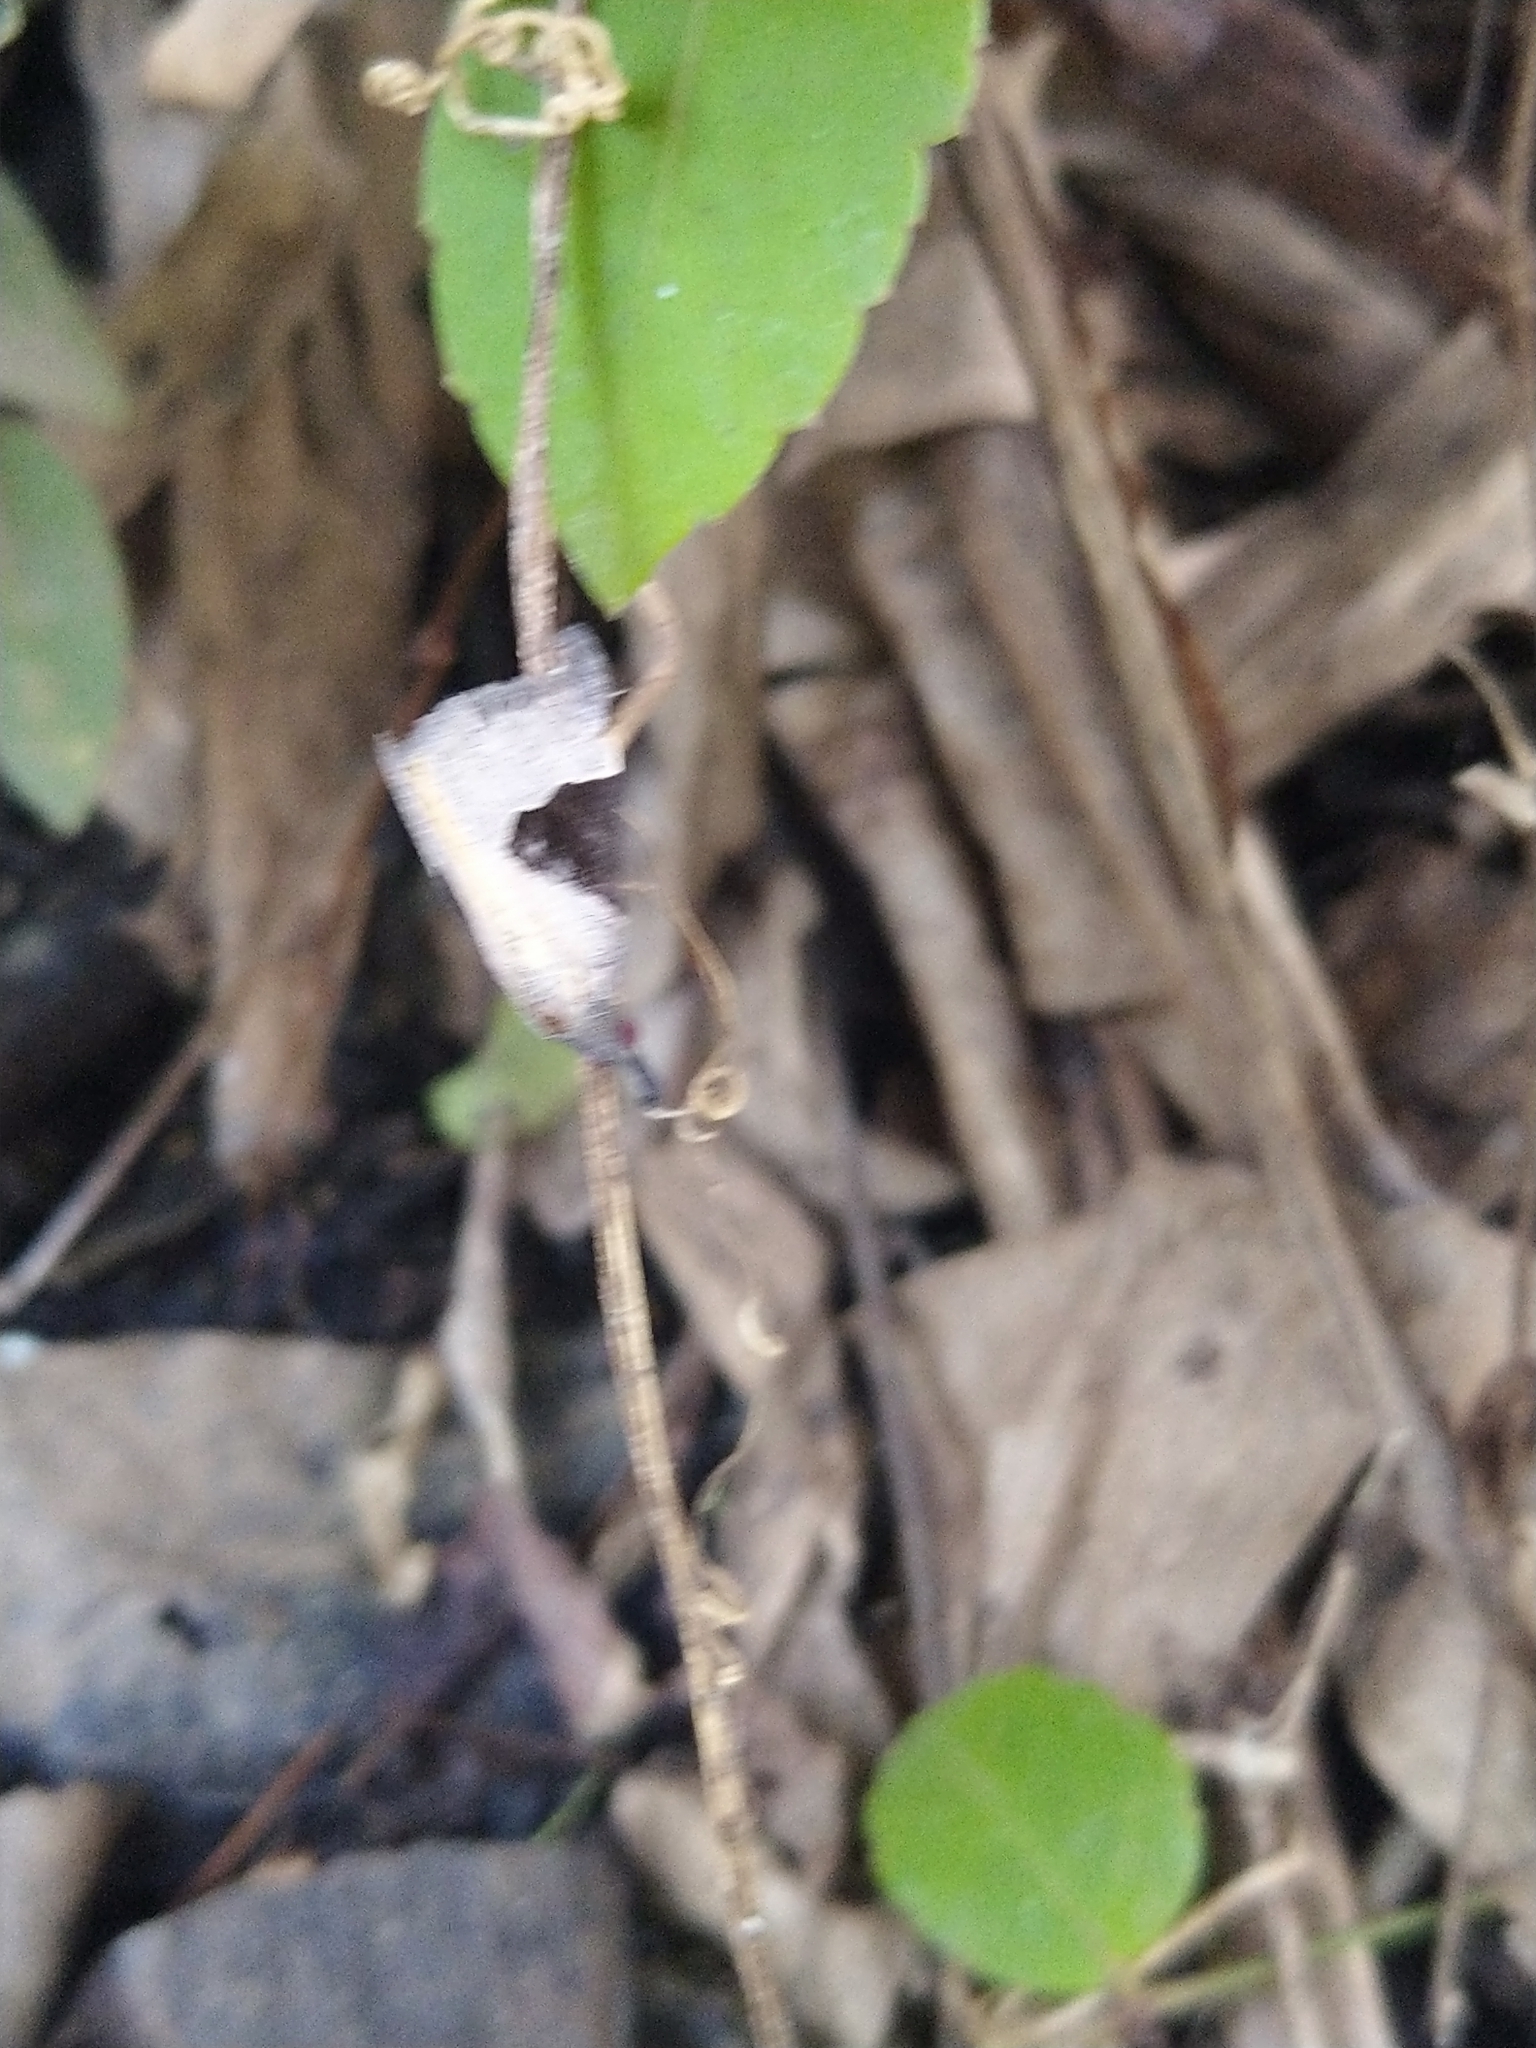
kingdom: Animalia
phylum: Arthropoda
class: Insecta
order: Lepidoptera
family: Erebidae
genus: Hypena
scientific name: Hypena Dichromia sagitta
